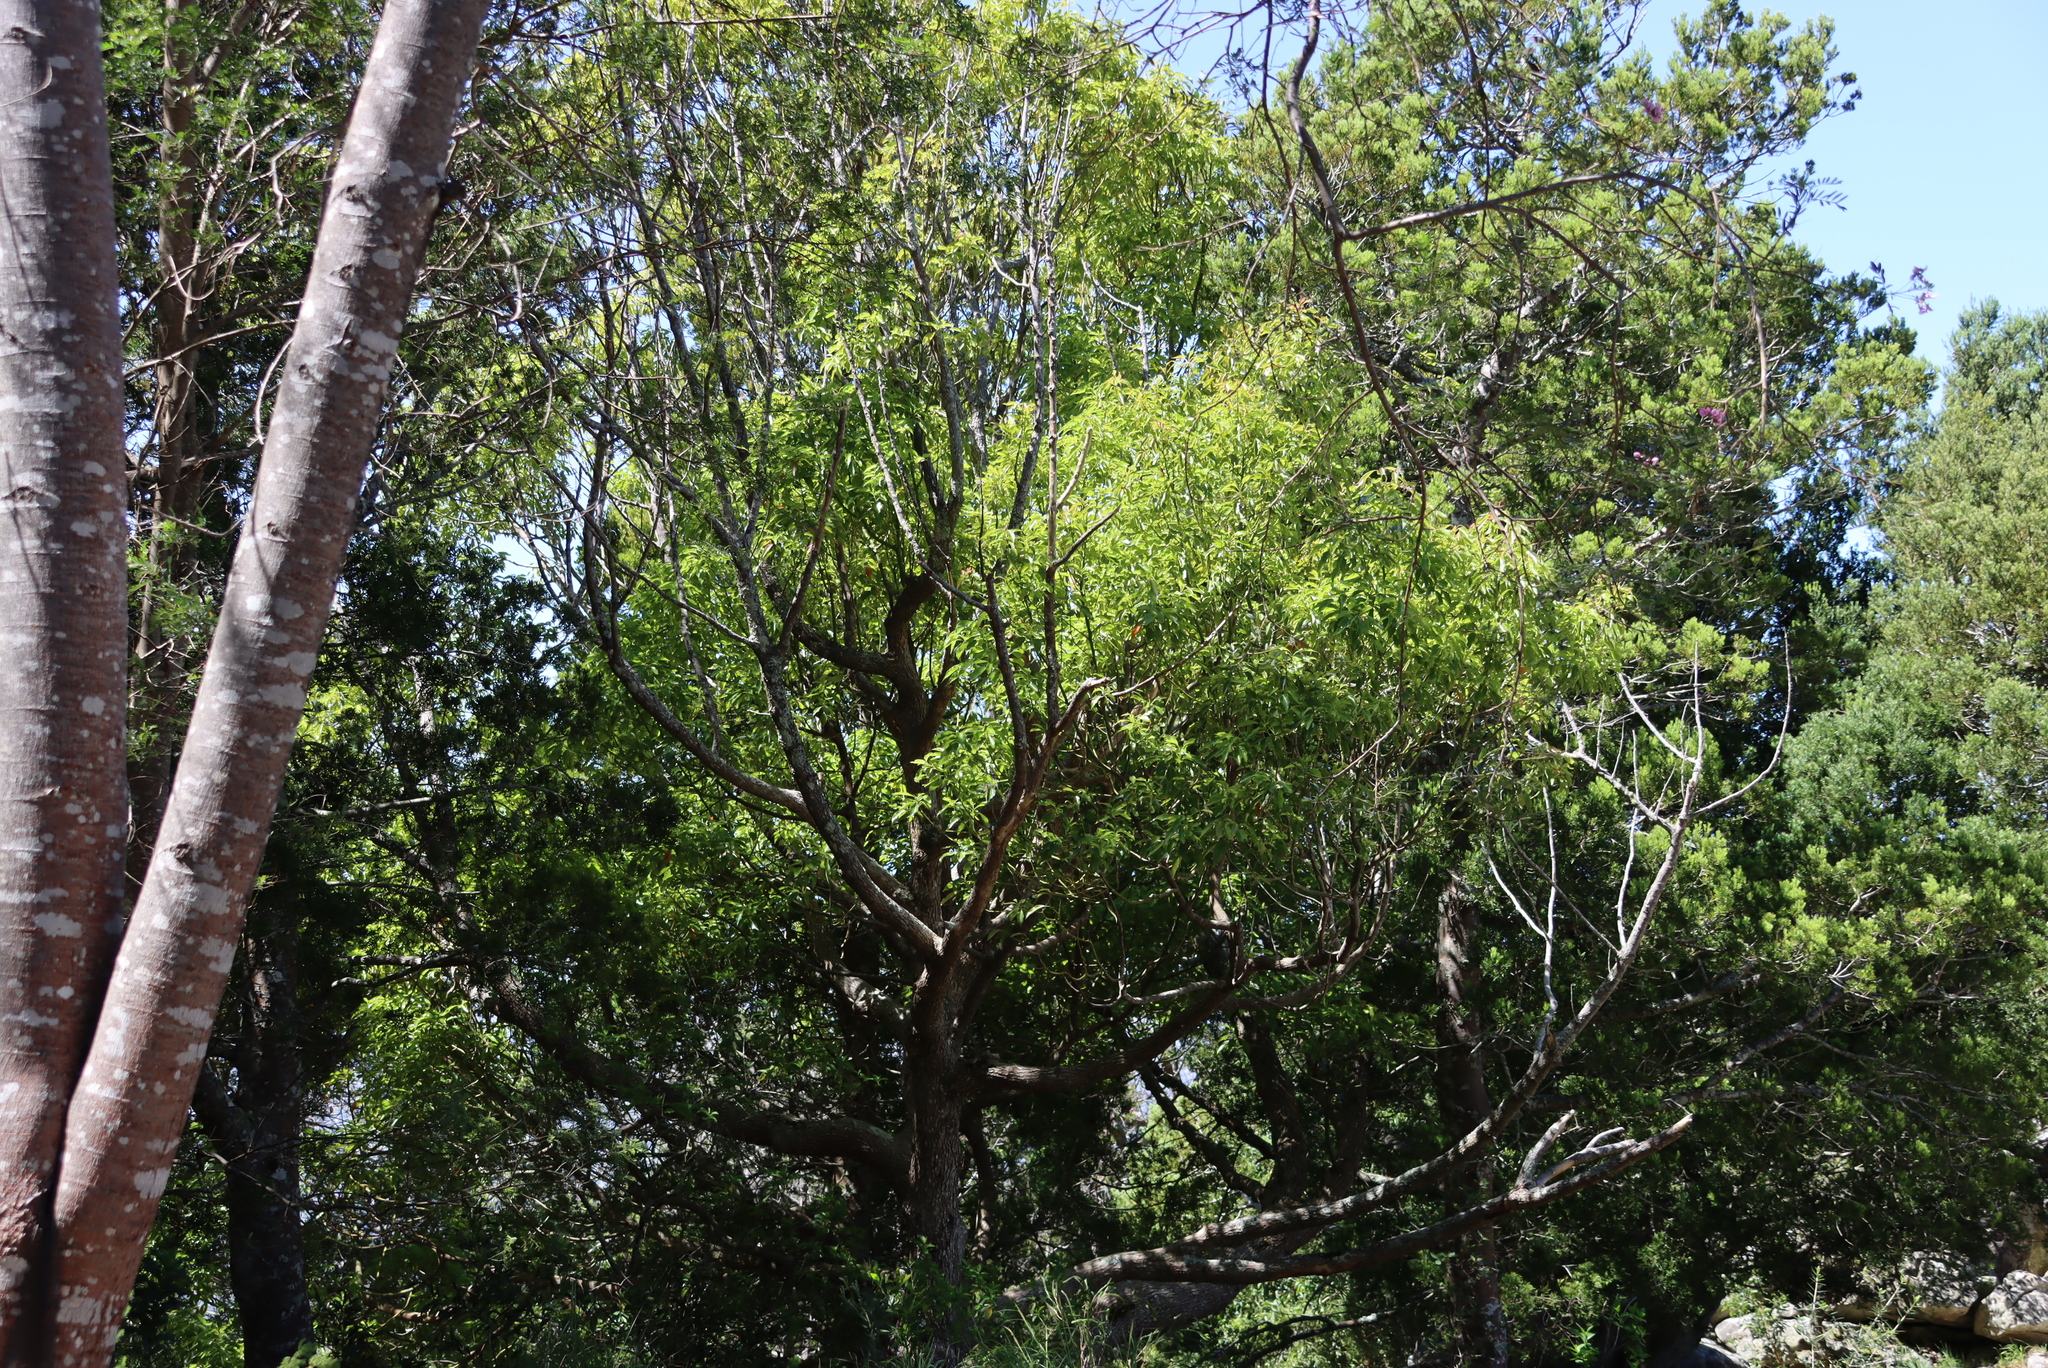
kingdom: Plantae
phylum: Tracheophyta
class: Magnoliopsida
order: Laurales
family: Lauraceae
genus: Cinnamomum
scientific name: Cinnamomum camphora
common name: Camphortree
